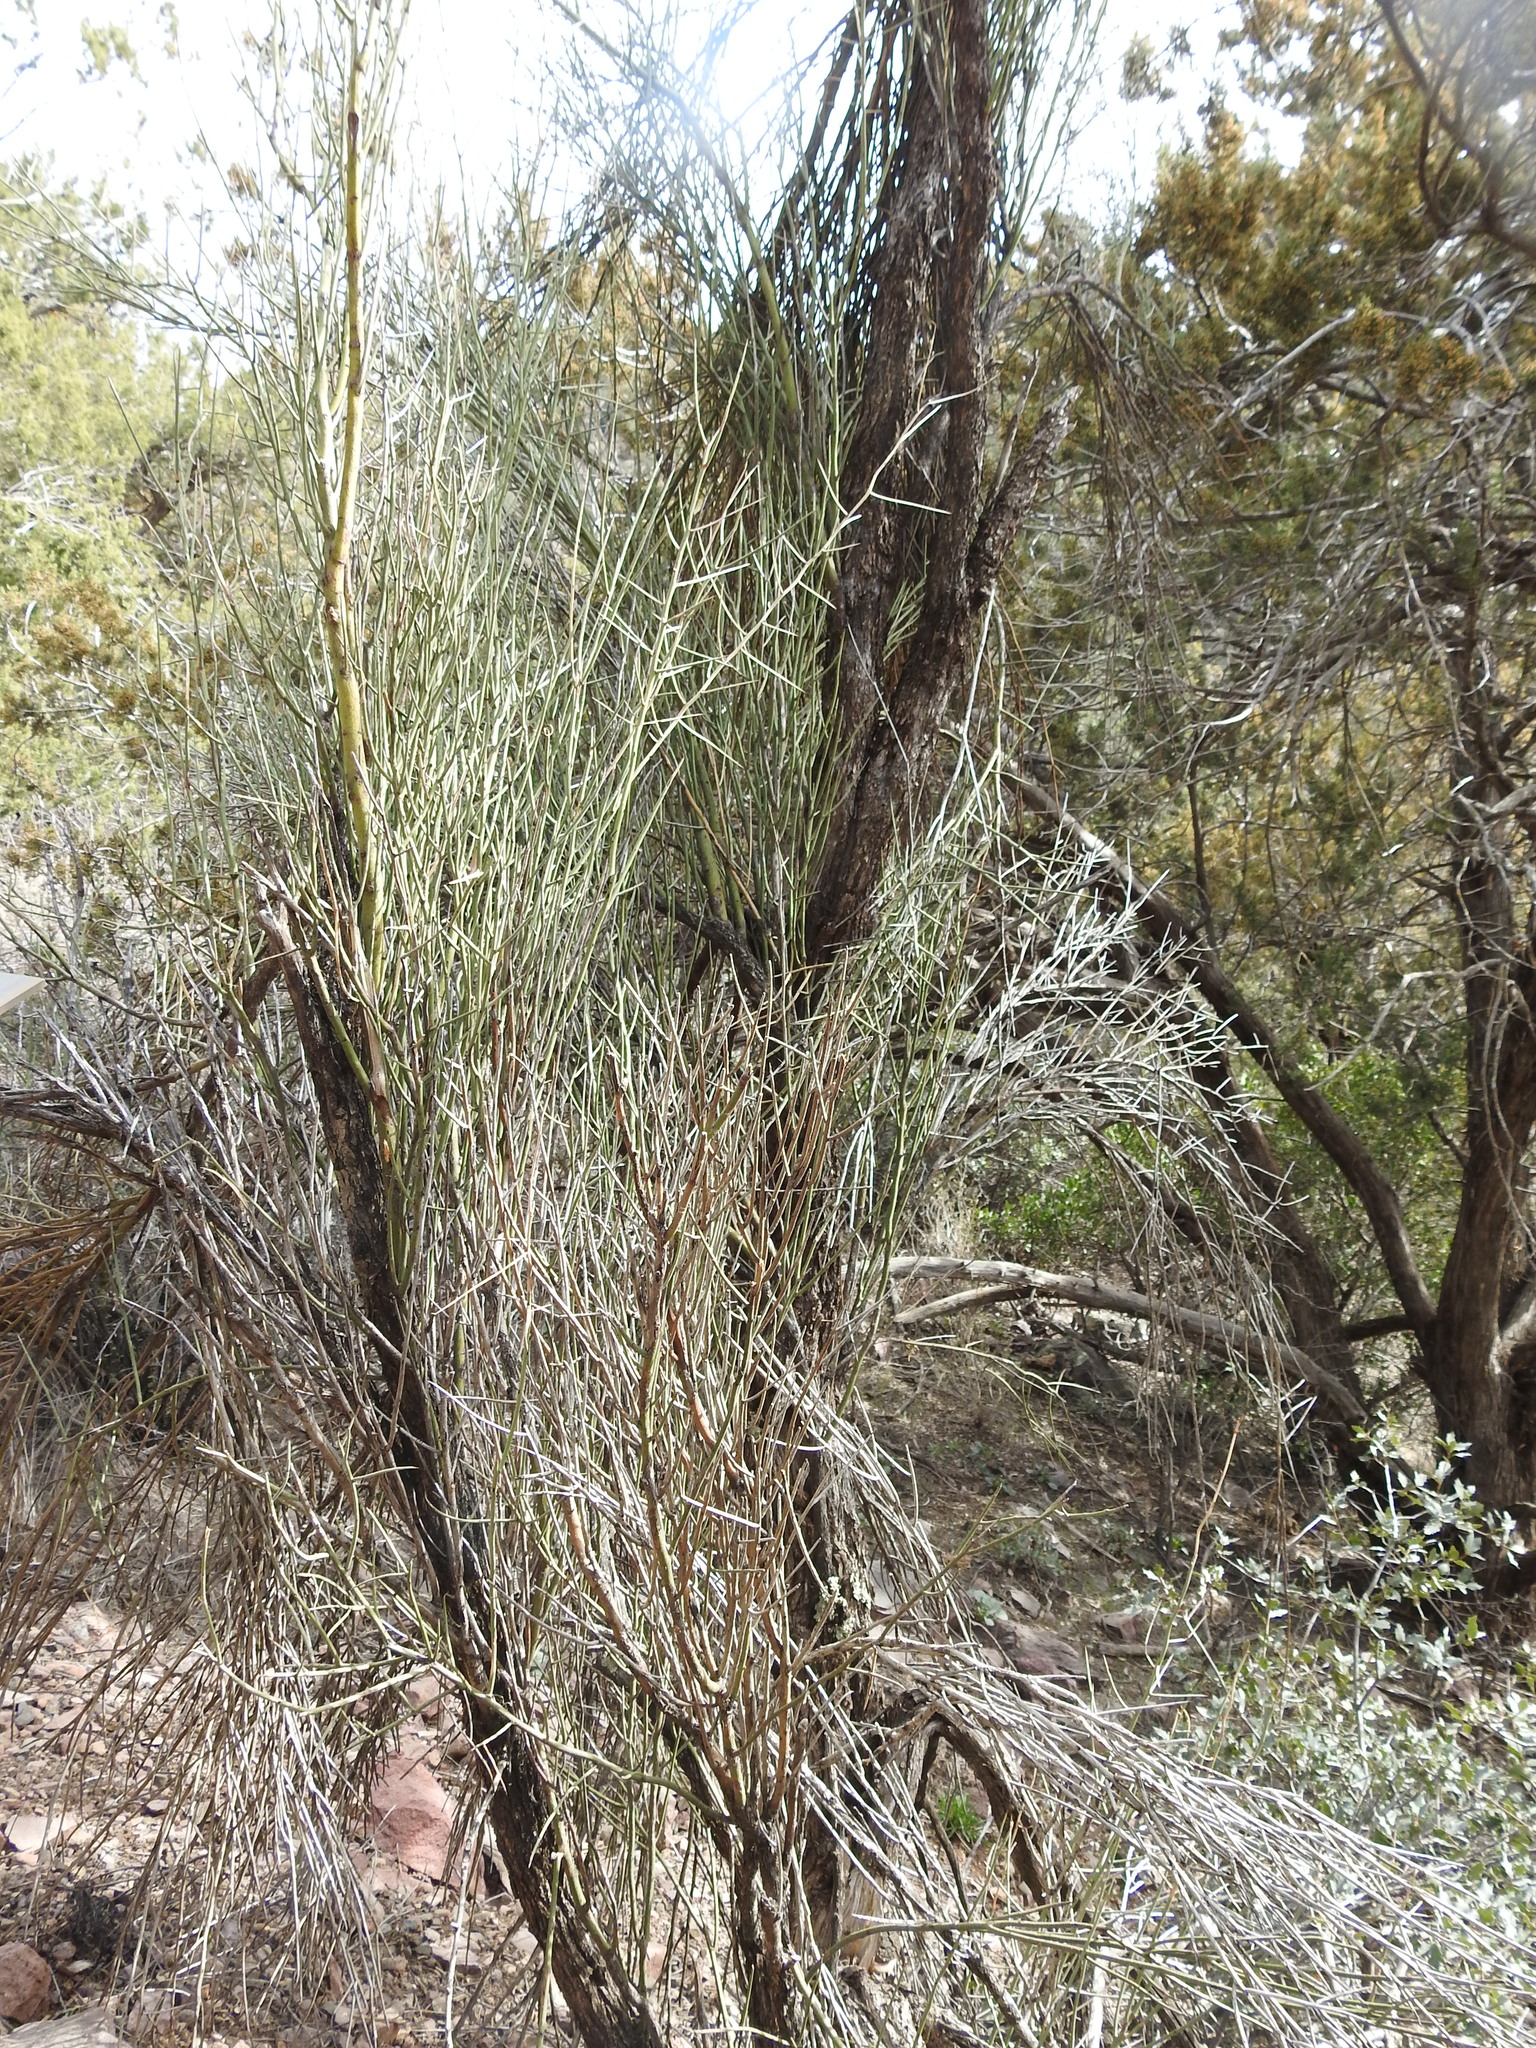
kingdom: Plantae
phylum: Tracheophyta
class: Magnoliopsida
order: Celastrales
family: Celastraceae
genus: Canotia
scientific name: Canotia holacantha
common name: Crucifixion thorns
